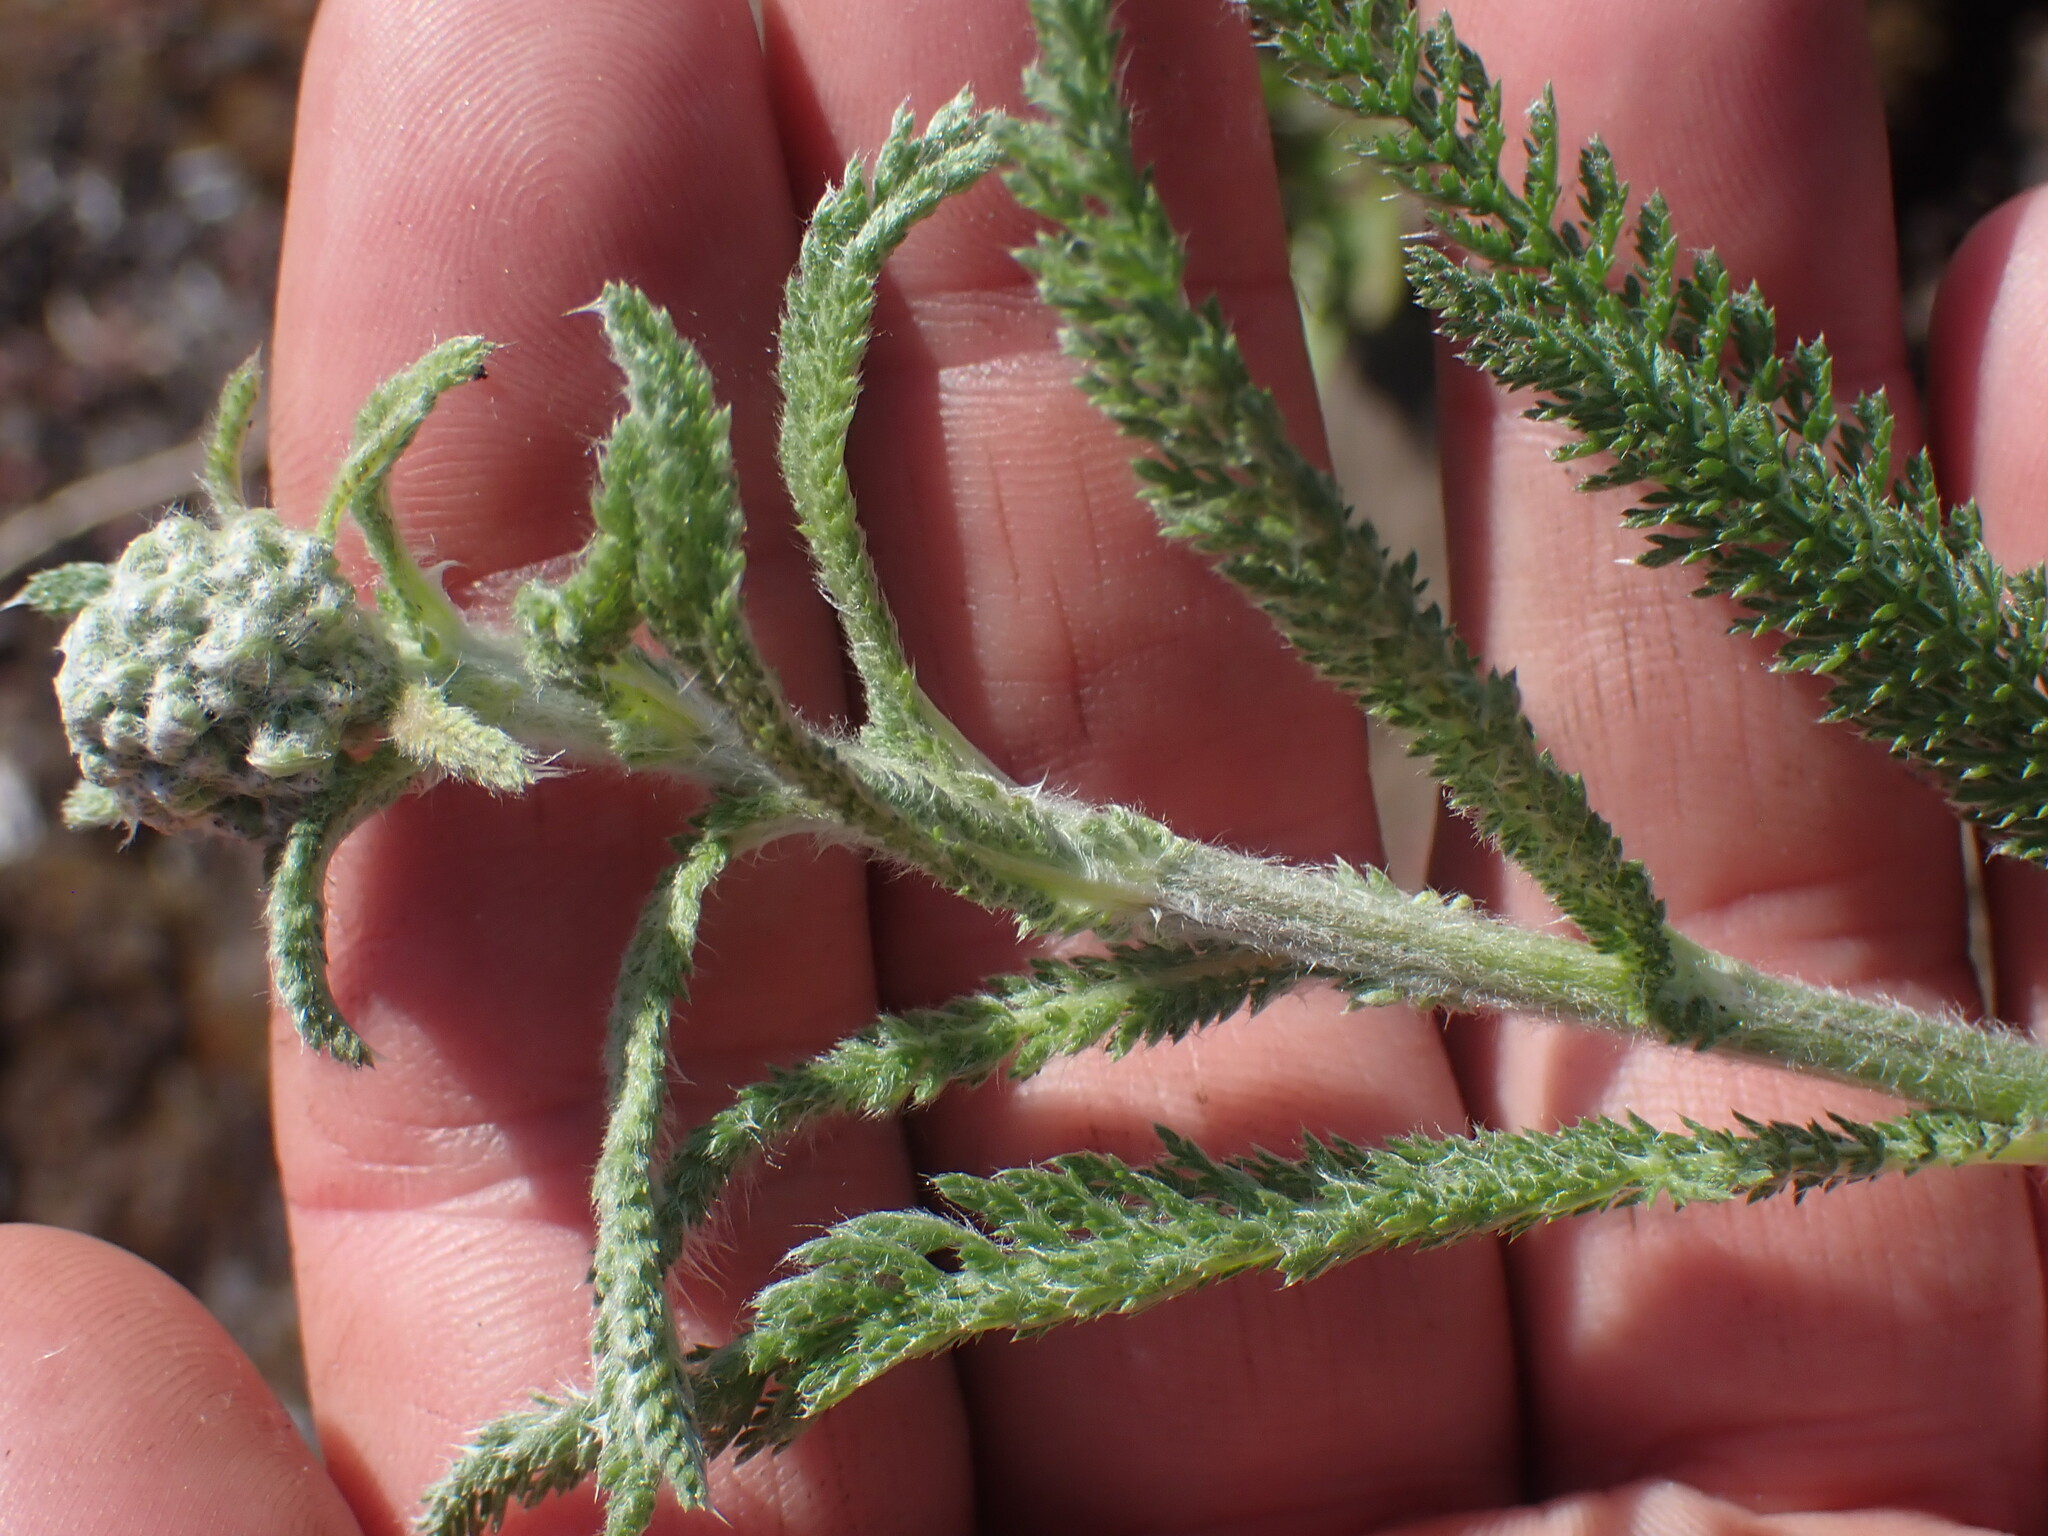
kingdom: Plantae
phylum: Tracheophyta
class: Magnoliopsida
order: Asterales
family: Asteraceae
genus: Achillea
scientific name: Achillea millefolium
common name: Yarrow
